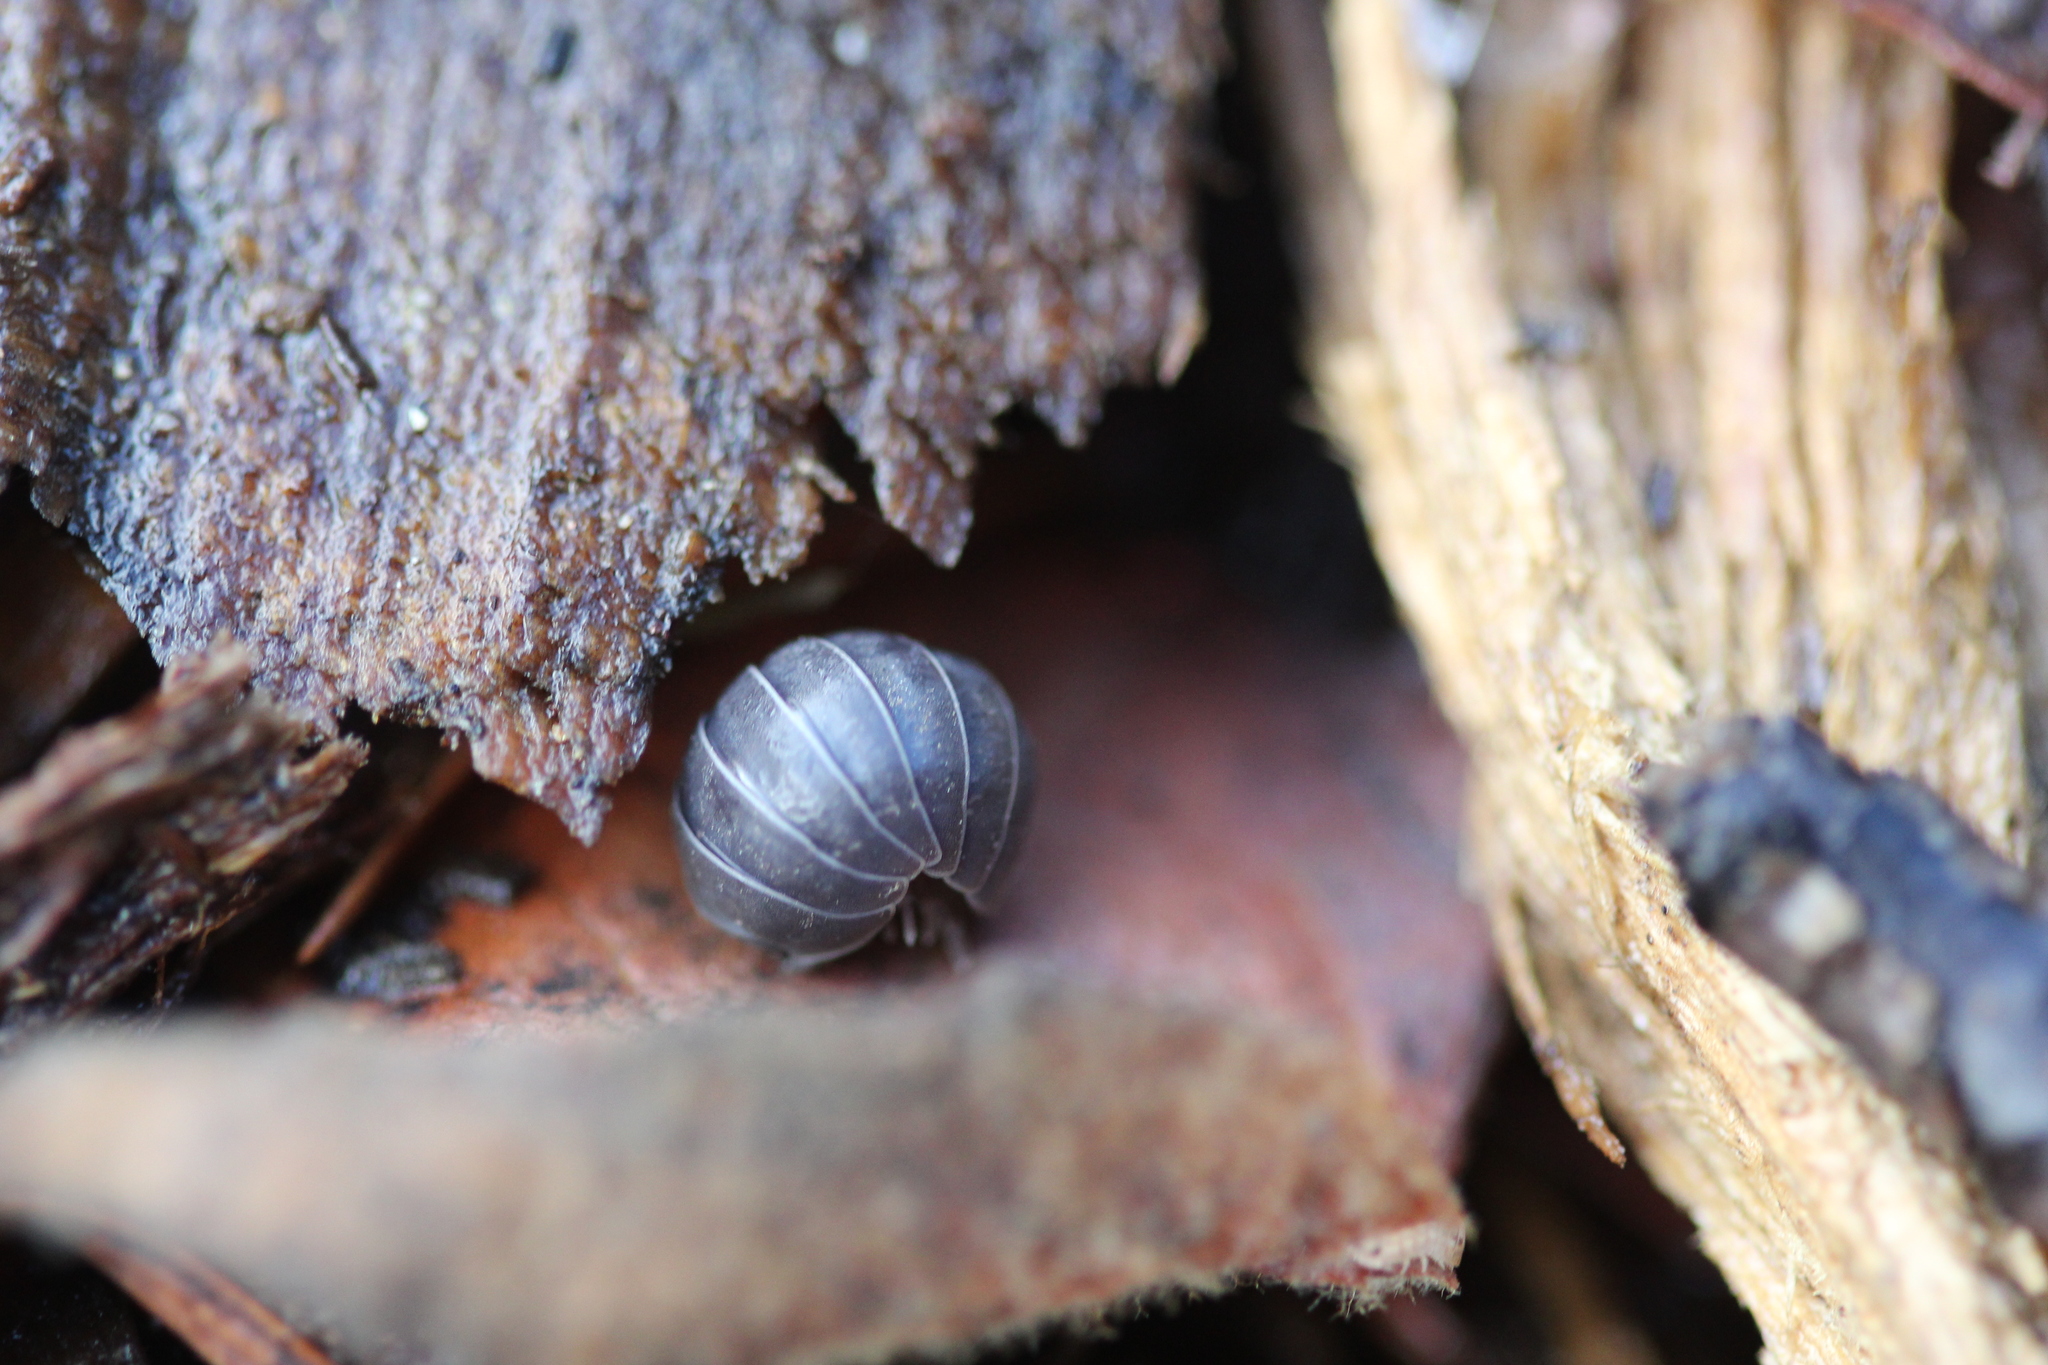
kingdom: Animalia
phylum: Arthropoda
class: Malacostraca
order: Isopoda
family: Armadillidiidae
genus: Armadillidium
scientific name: Armadillidium vulgare
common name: Common pill woodlouse
